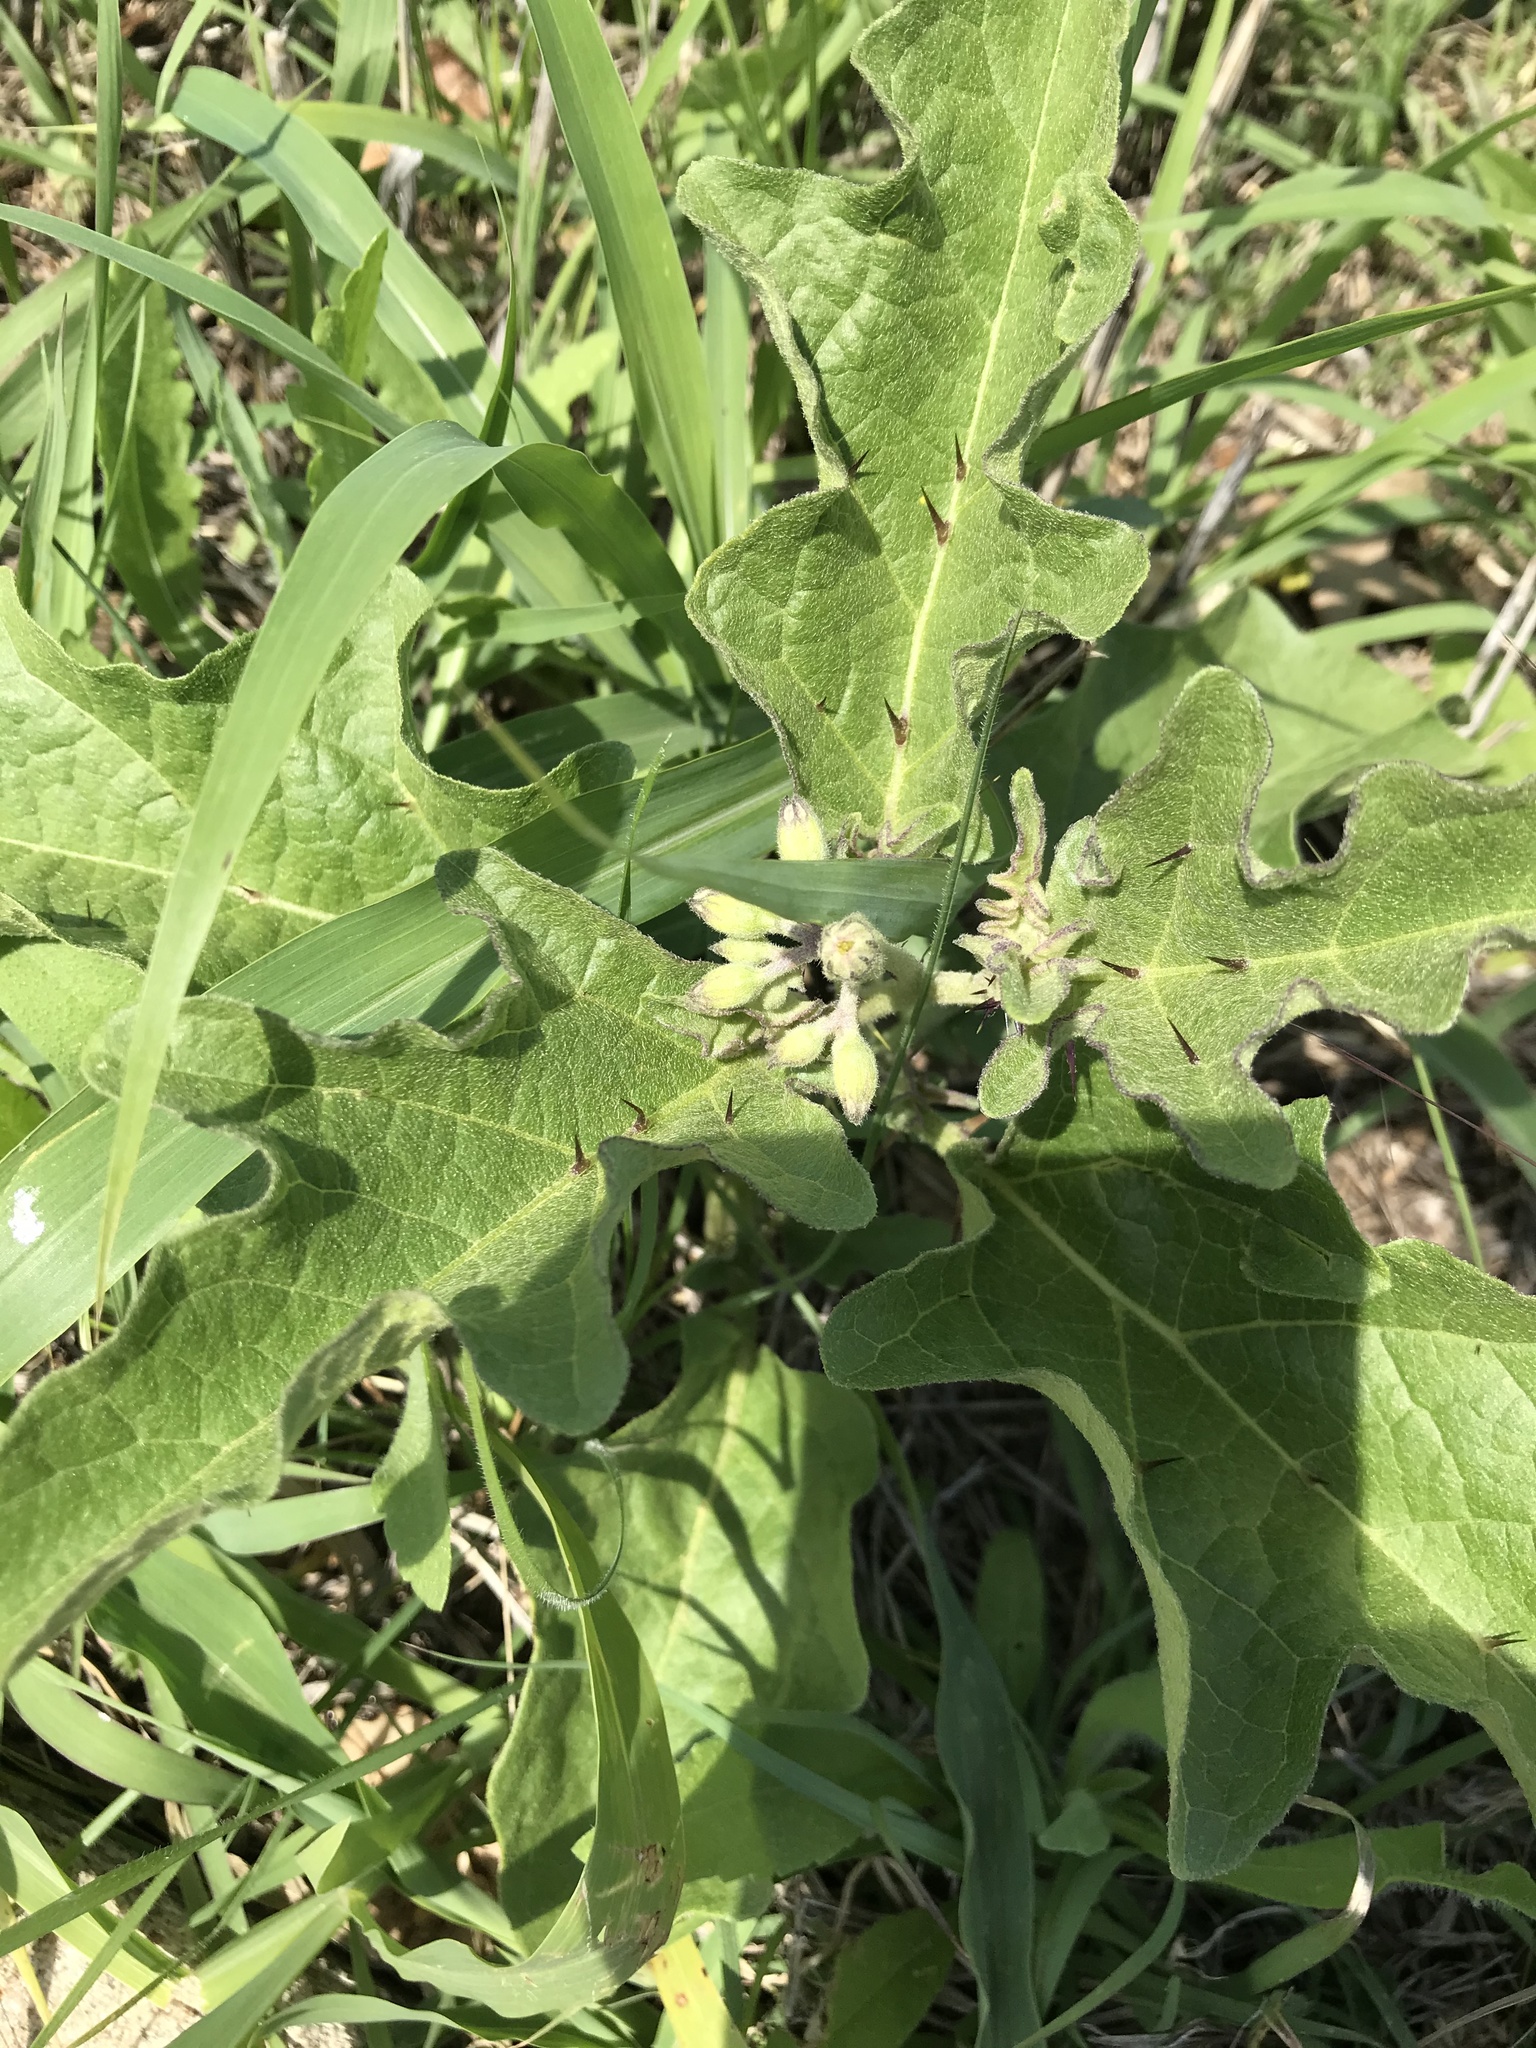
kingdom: Plantae
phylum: Tracheophyta
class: Magnoliopsida
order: Solanales
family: Solanaceae
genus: Solanum
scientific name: Solanum dimidiatum
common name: Carolina horse-nettle
